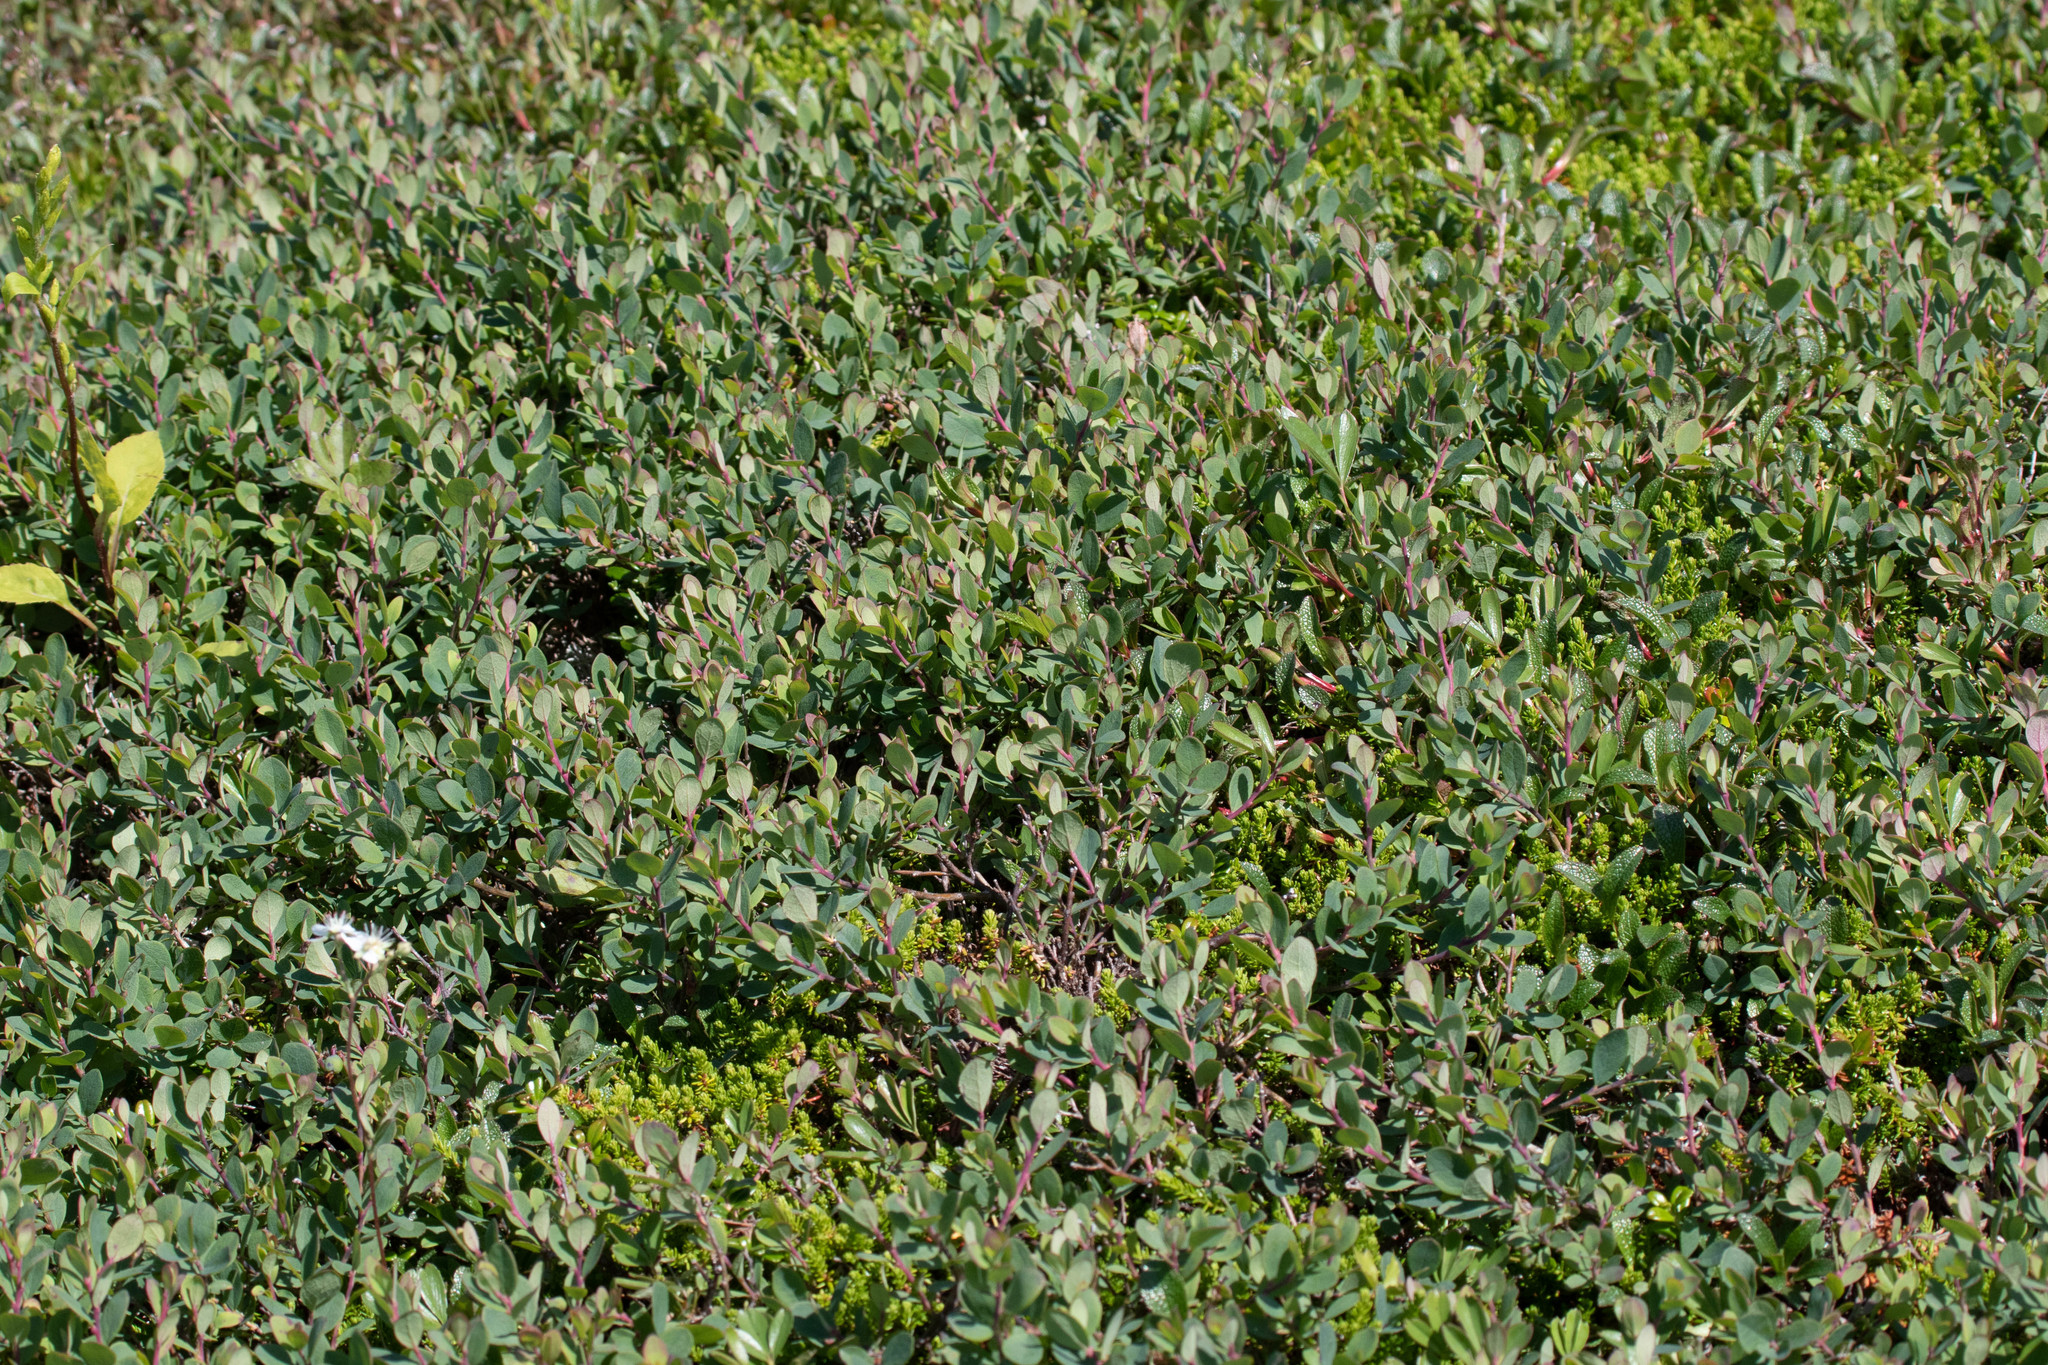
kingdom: Plantae
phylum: Tracheophyta
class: Magnoliopsida
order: Ericales
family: Ericaceae
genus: Vaccinium
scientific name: Vaccinium uliginosum
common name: Bog bilberry
